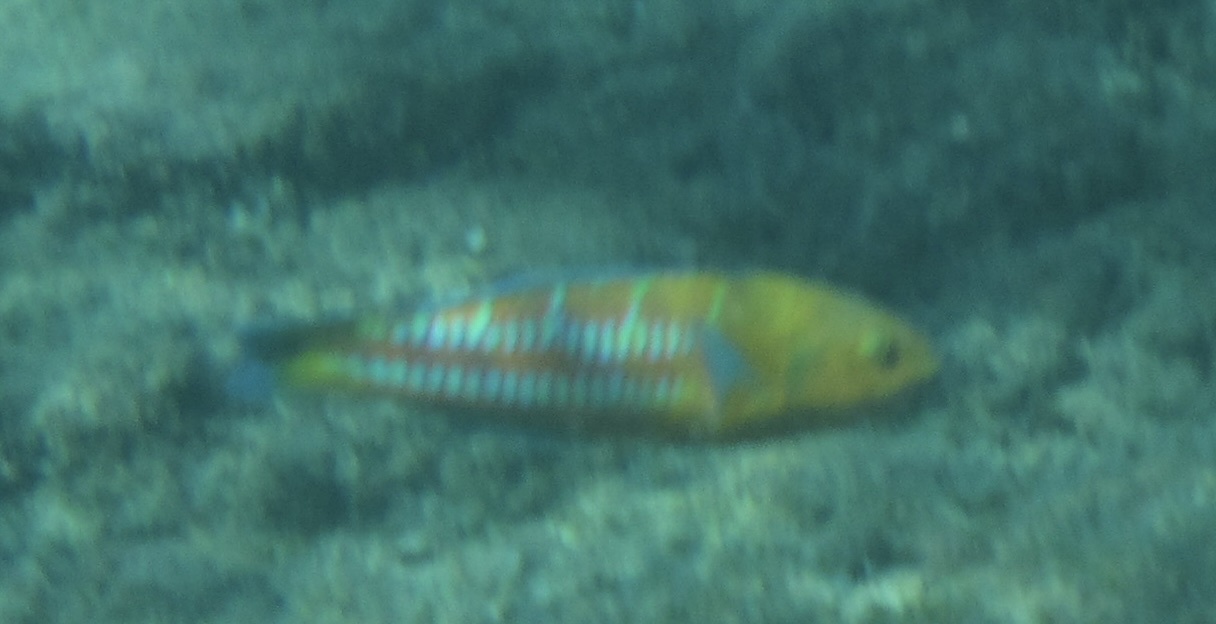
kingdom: Animalia
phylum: Chordata
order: Perciformes
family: Labridae
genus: Thalassoma
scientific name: Thalassoma trilobatum
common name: Christmas wrasse
